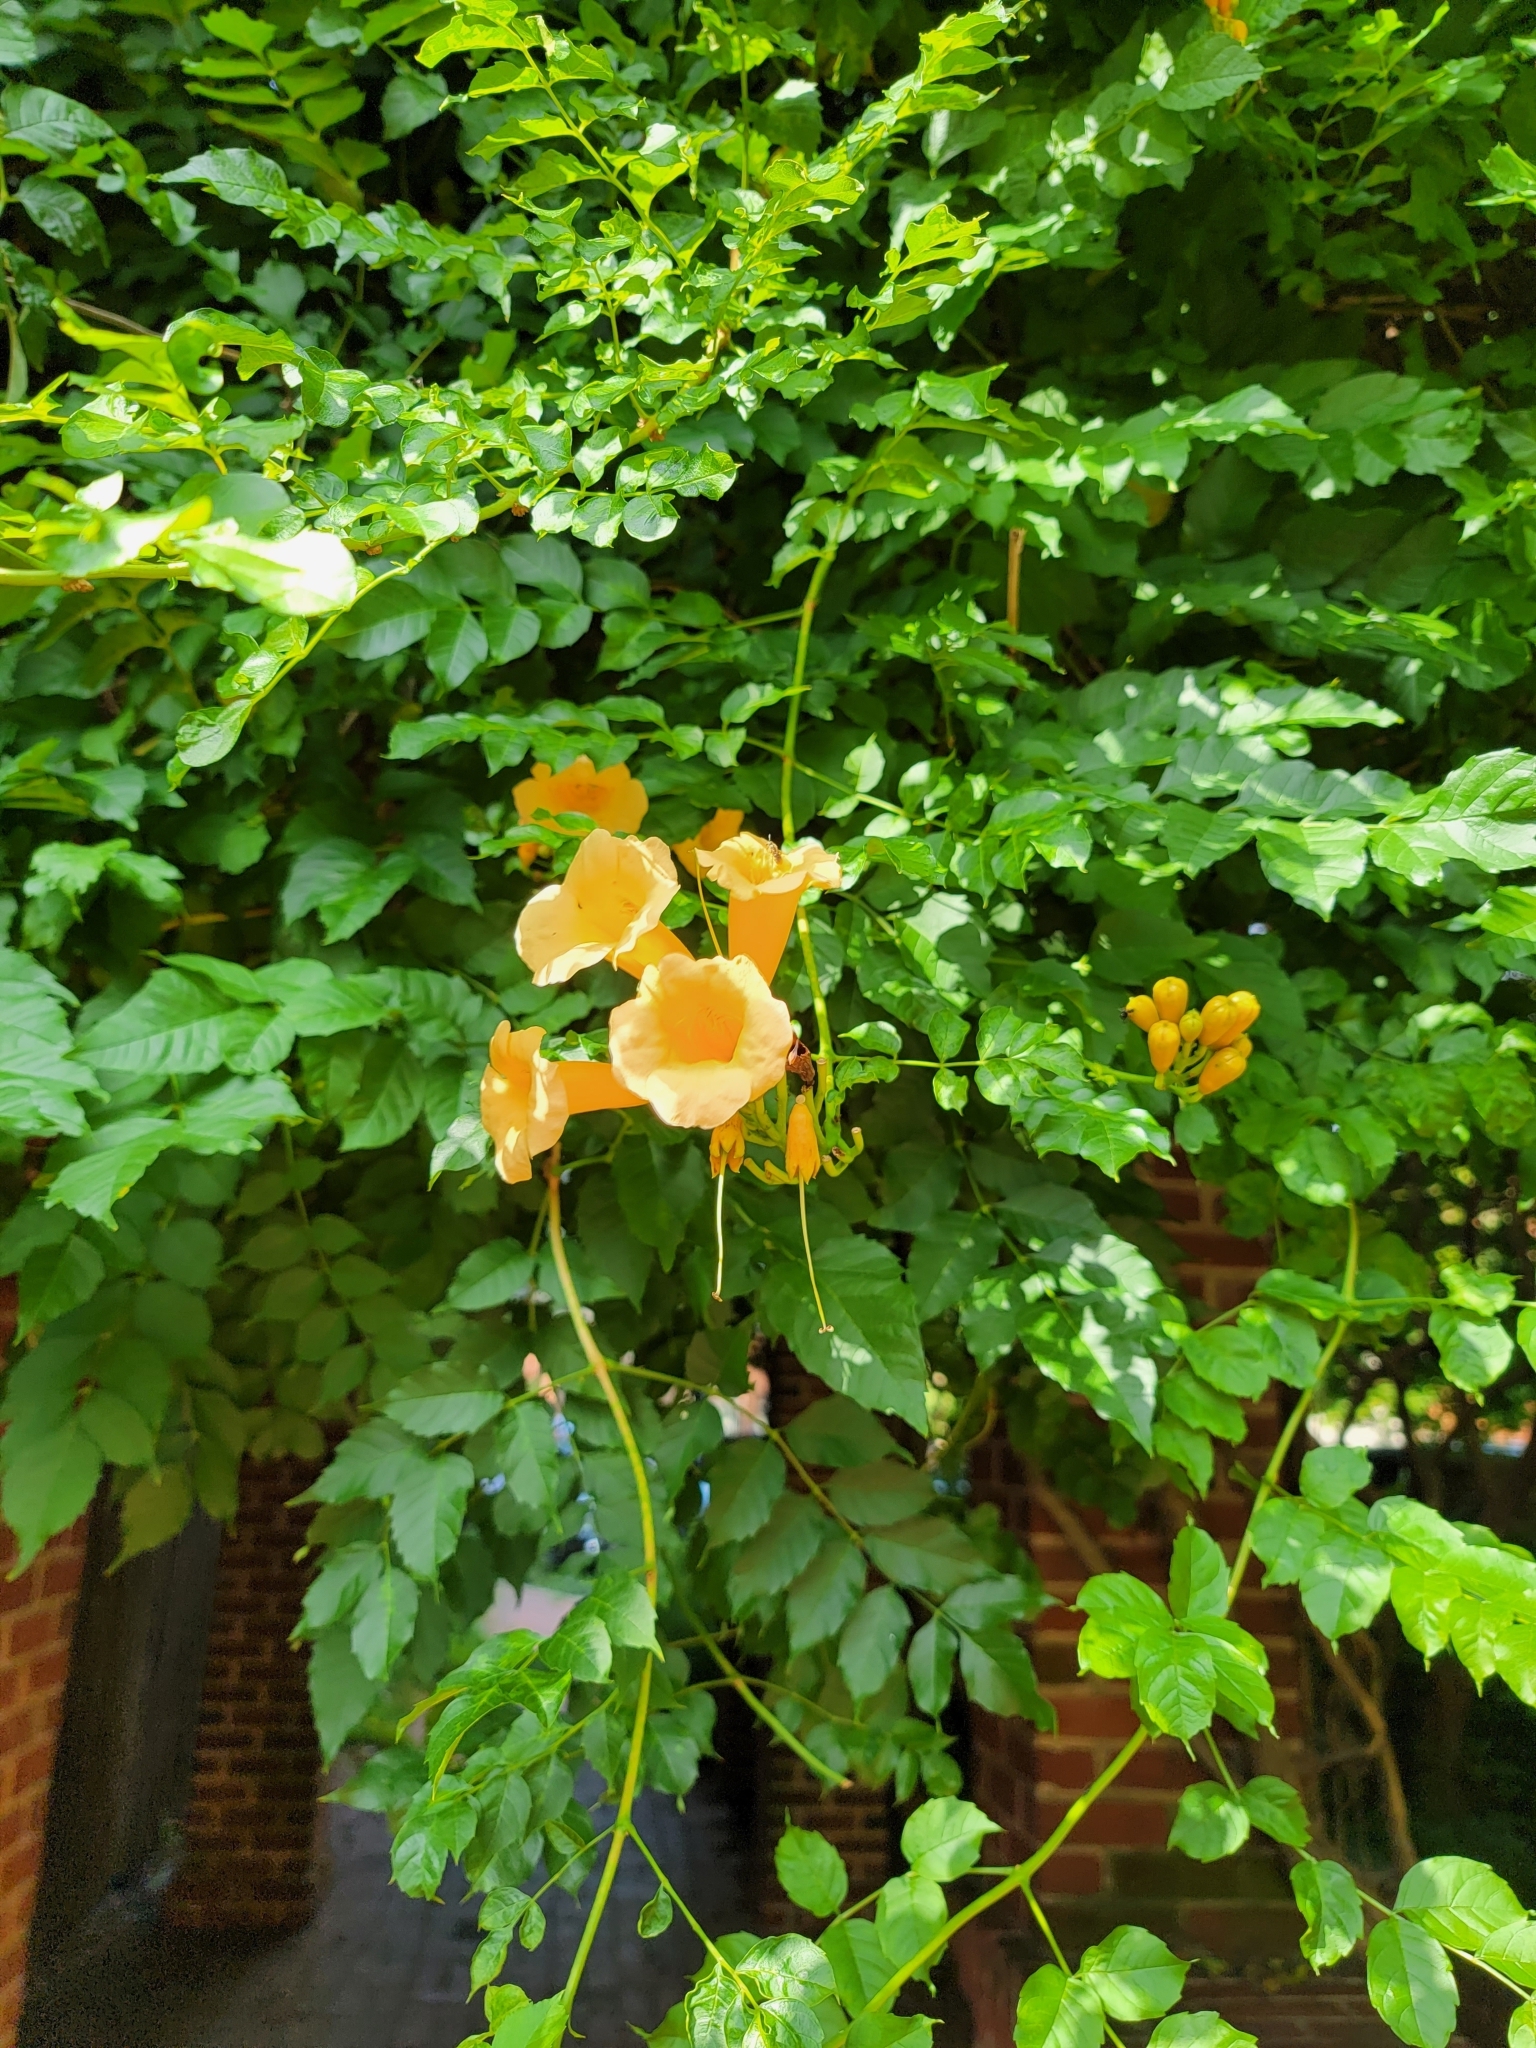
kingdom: Plantae
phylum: Tracheophyta
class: Magnoliopsida
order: Lamiales
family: Bignoniaceae
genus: Campsis
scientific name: Campsis radicans
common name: Trumpet-creeper
